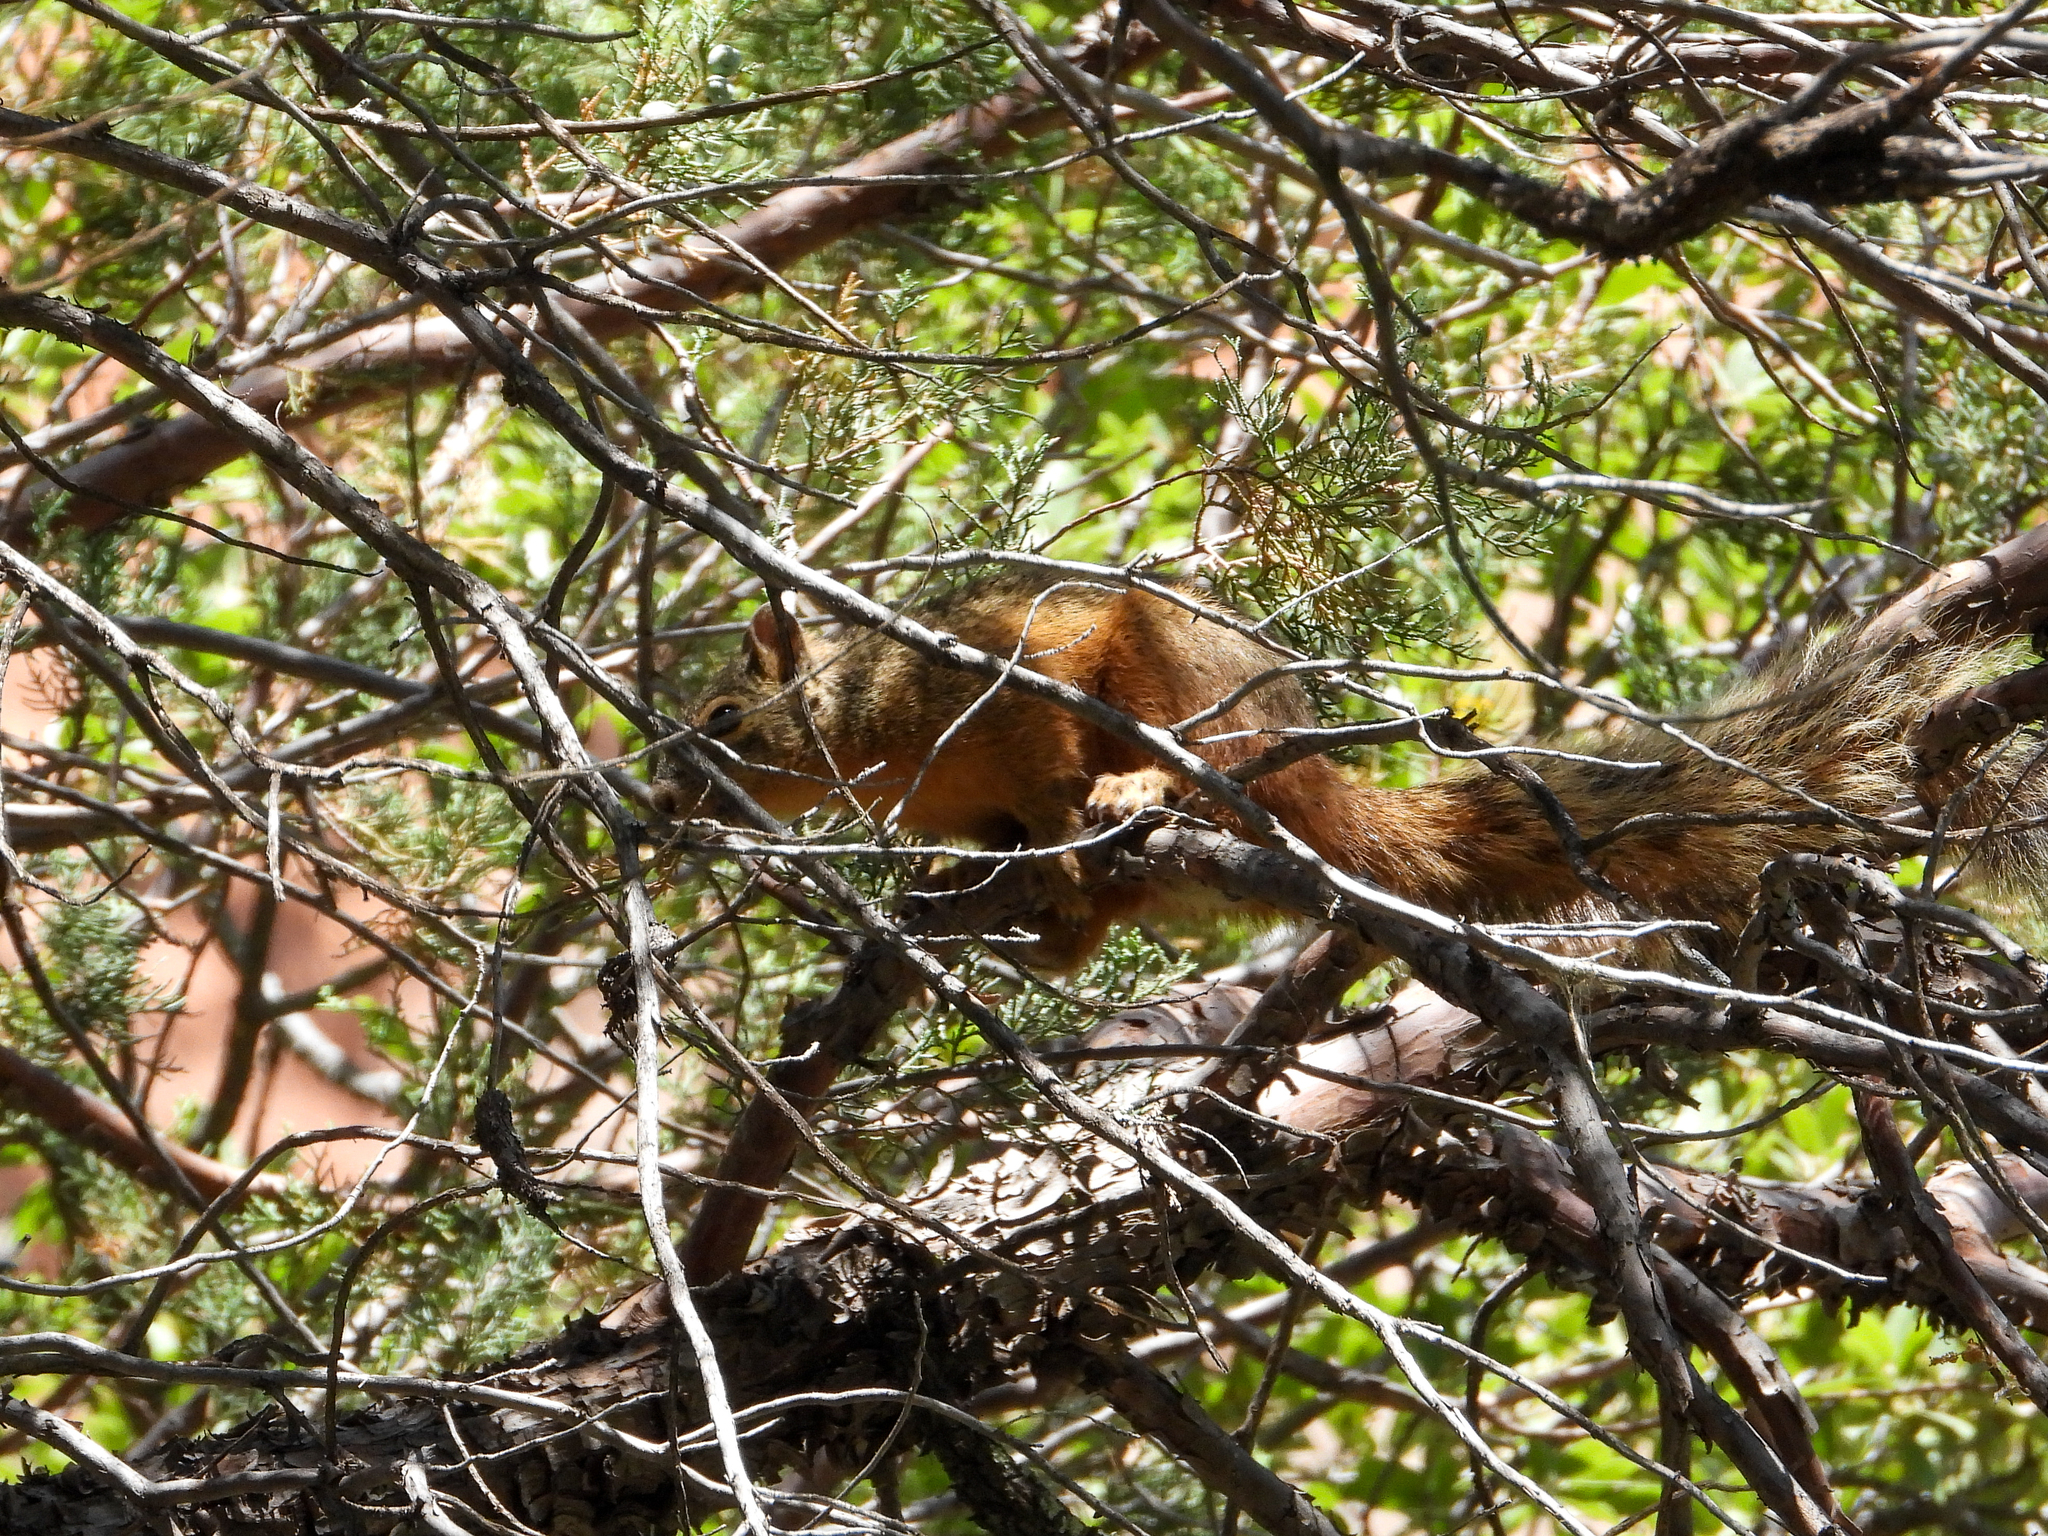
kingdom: Animalia
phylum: Chordata
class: Mammalia
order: Rodentia
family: Sciuridae
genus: Sciurus
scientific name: Sciurus nayaritensis
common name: Mexican fox squirrel
